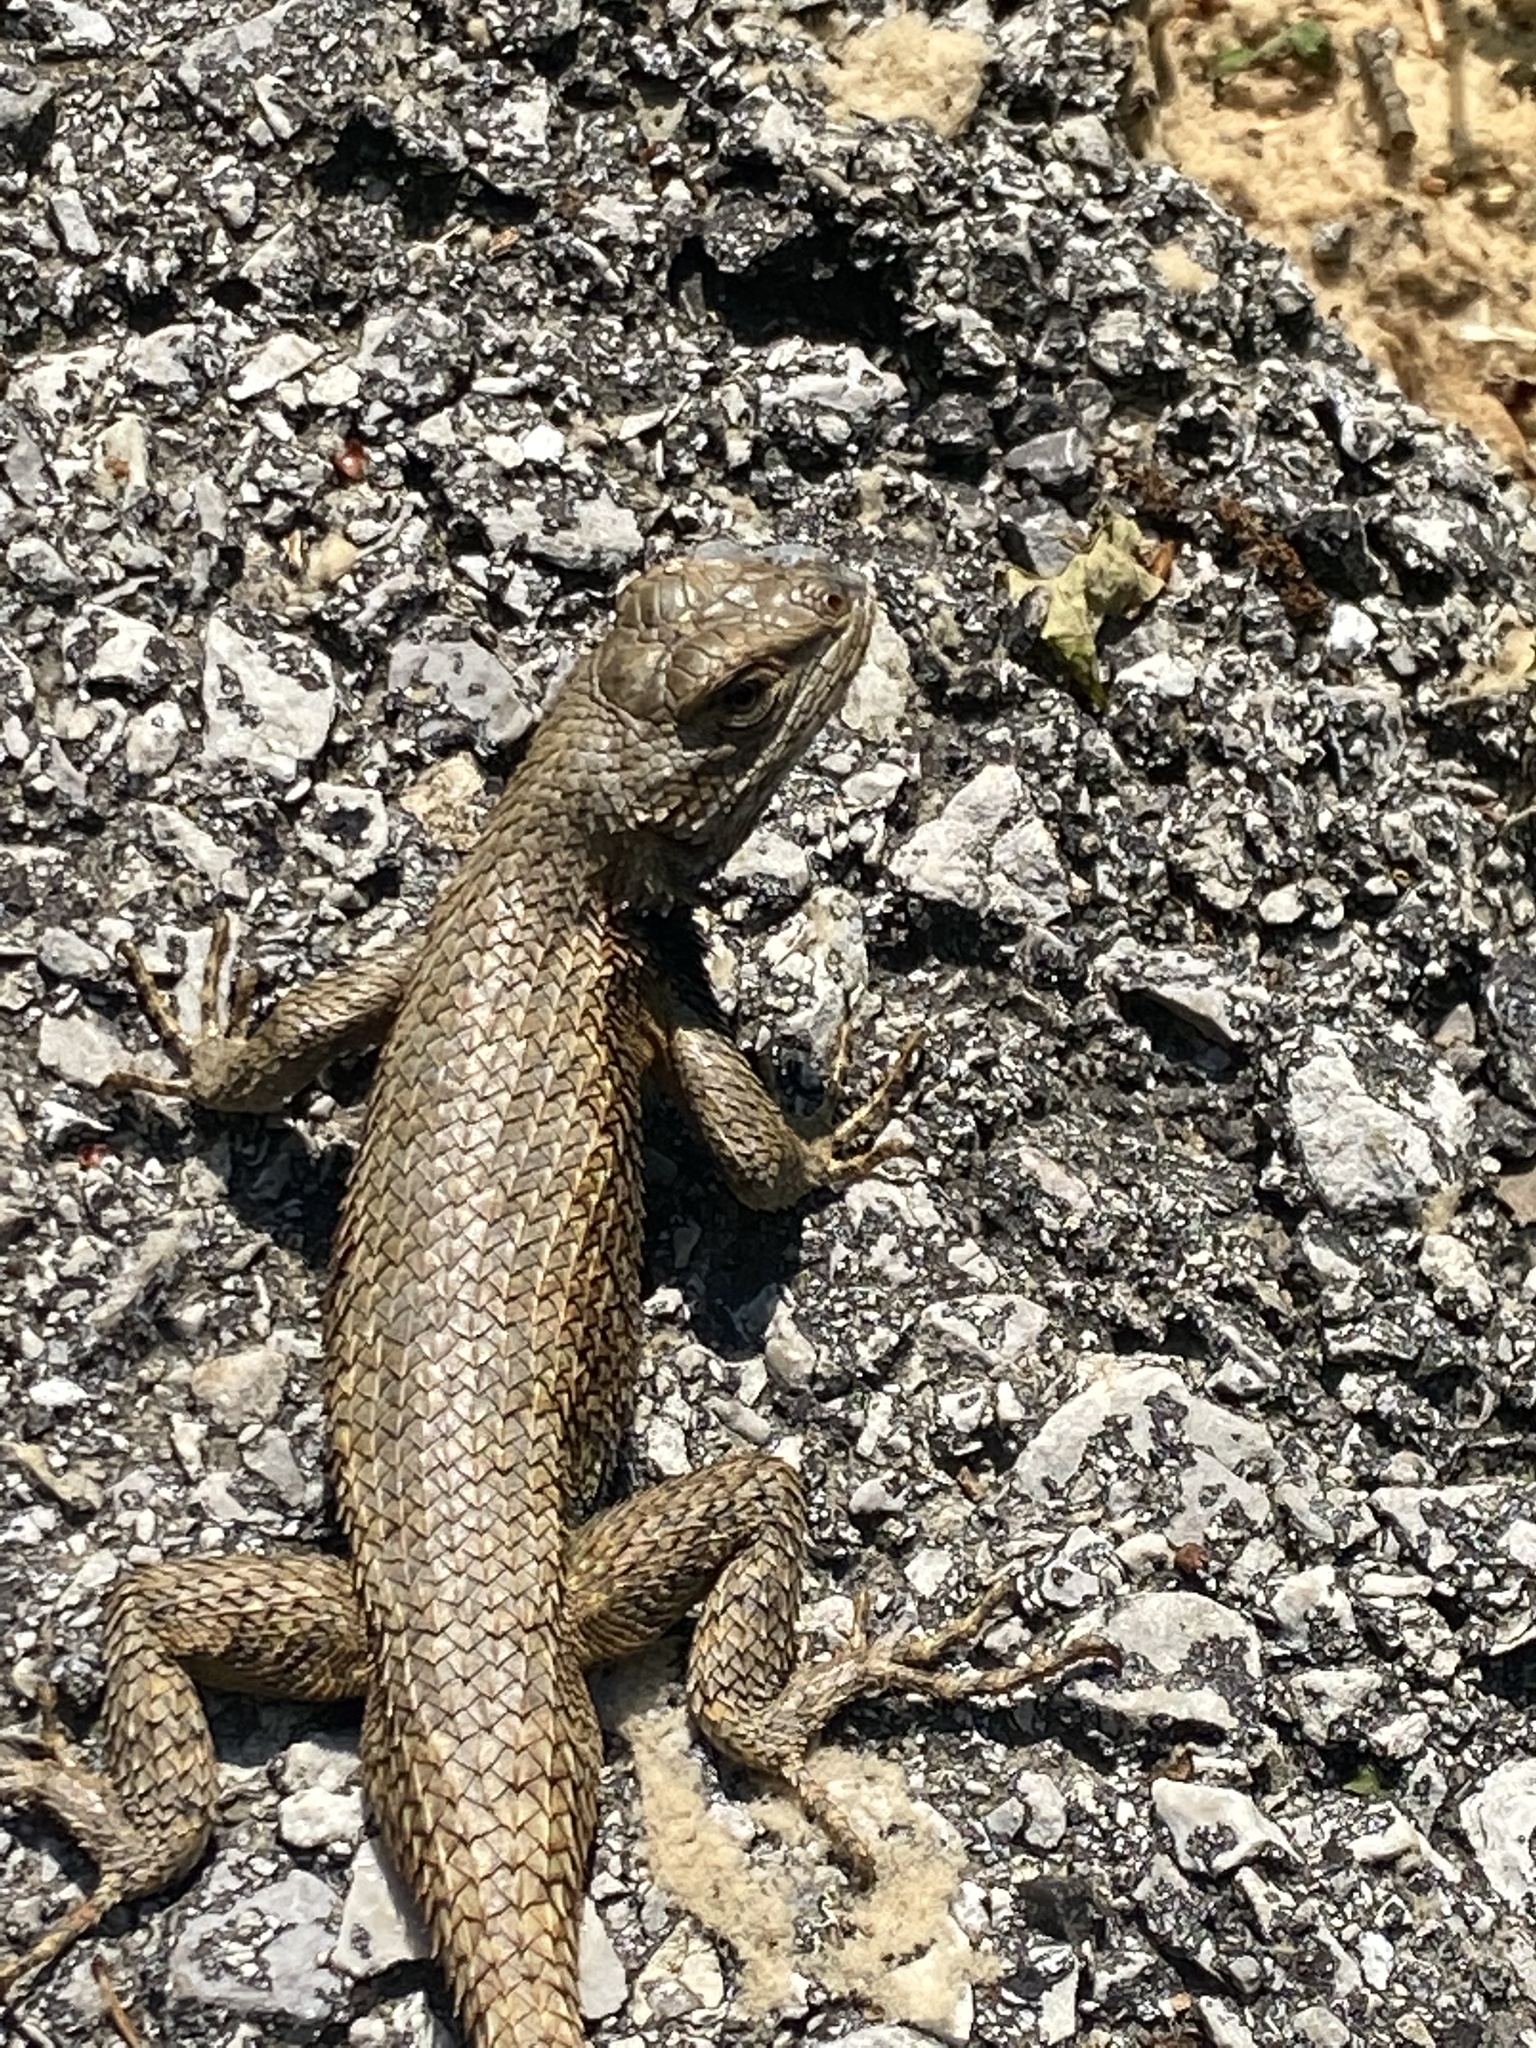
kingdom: Animalia
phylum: Chordata
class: Squamata
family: Phrynosomatidae
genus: Sceloporus
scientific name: Sceloporus undulatus
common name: Eastern fence lizard
